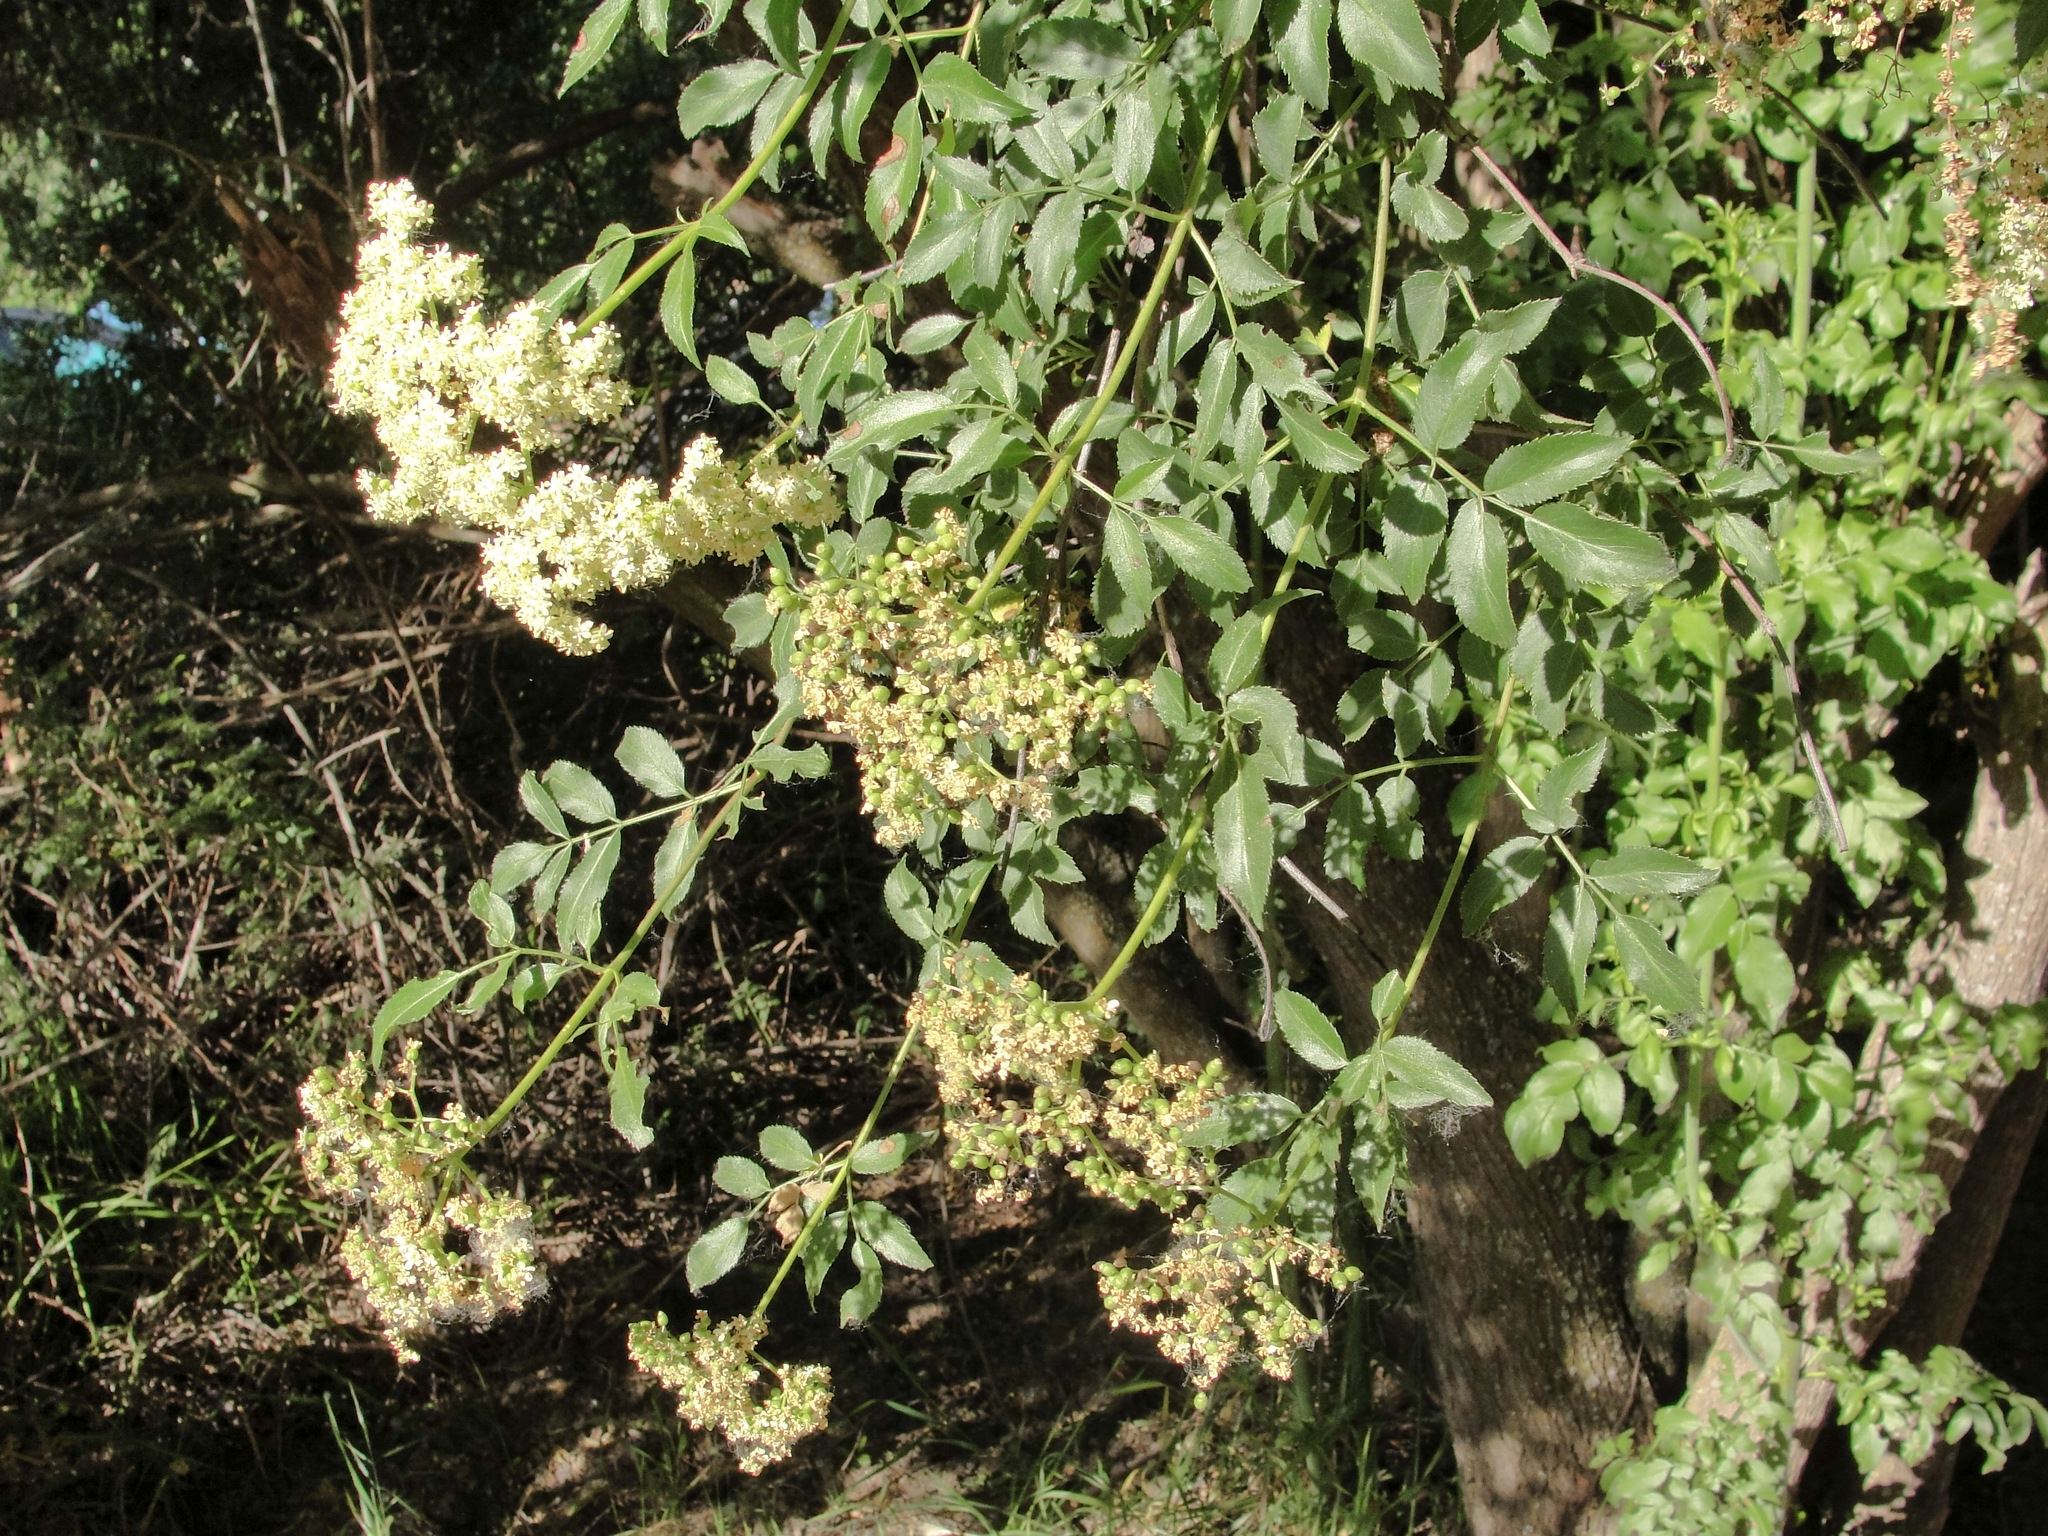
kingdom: Plantae
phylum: Tracheophyta
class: Magnoliopsida
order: Dipsacales
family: Viburnaceae
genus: Sambucus
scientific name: Sambucus cerulea
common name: Blue elder
